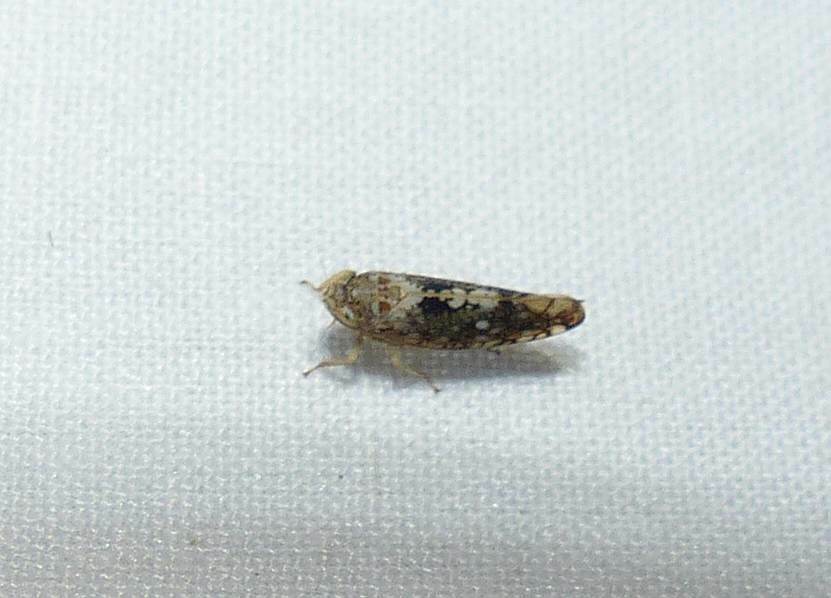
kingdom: Animalia
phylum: Arthropoda
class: Insecta
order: Hemiptera
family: Cicadellidae
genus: Prescottia
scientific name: Prescottia lobata
